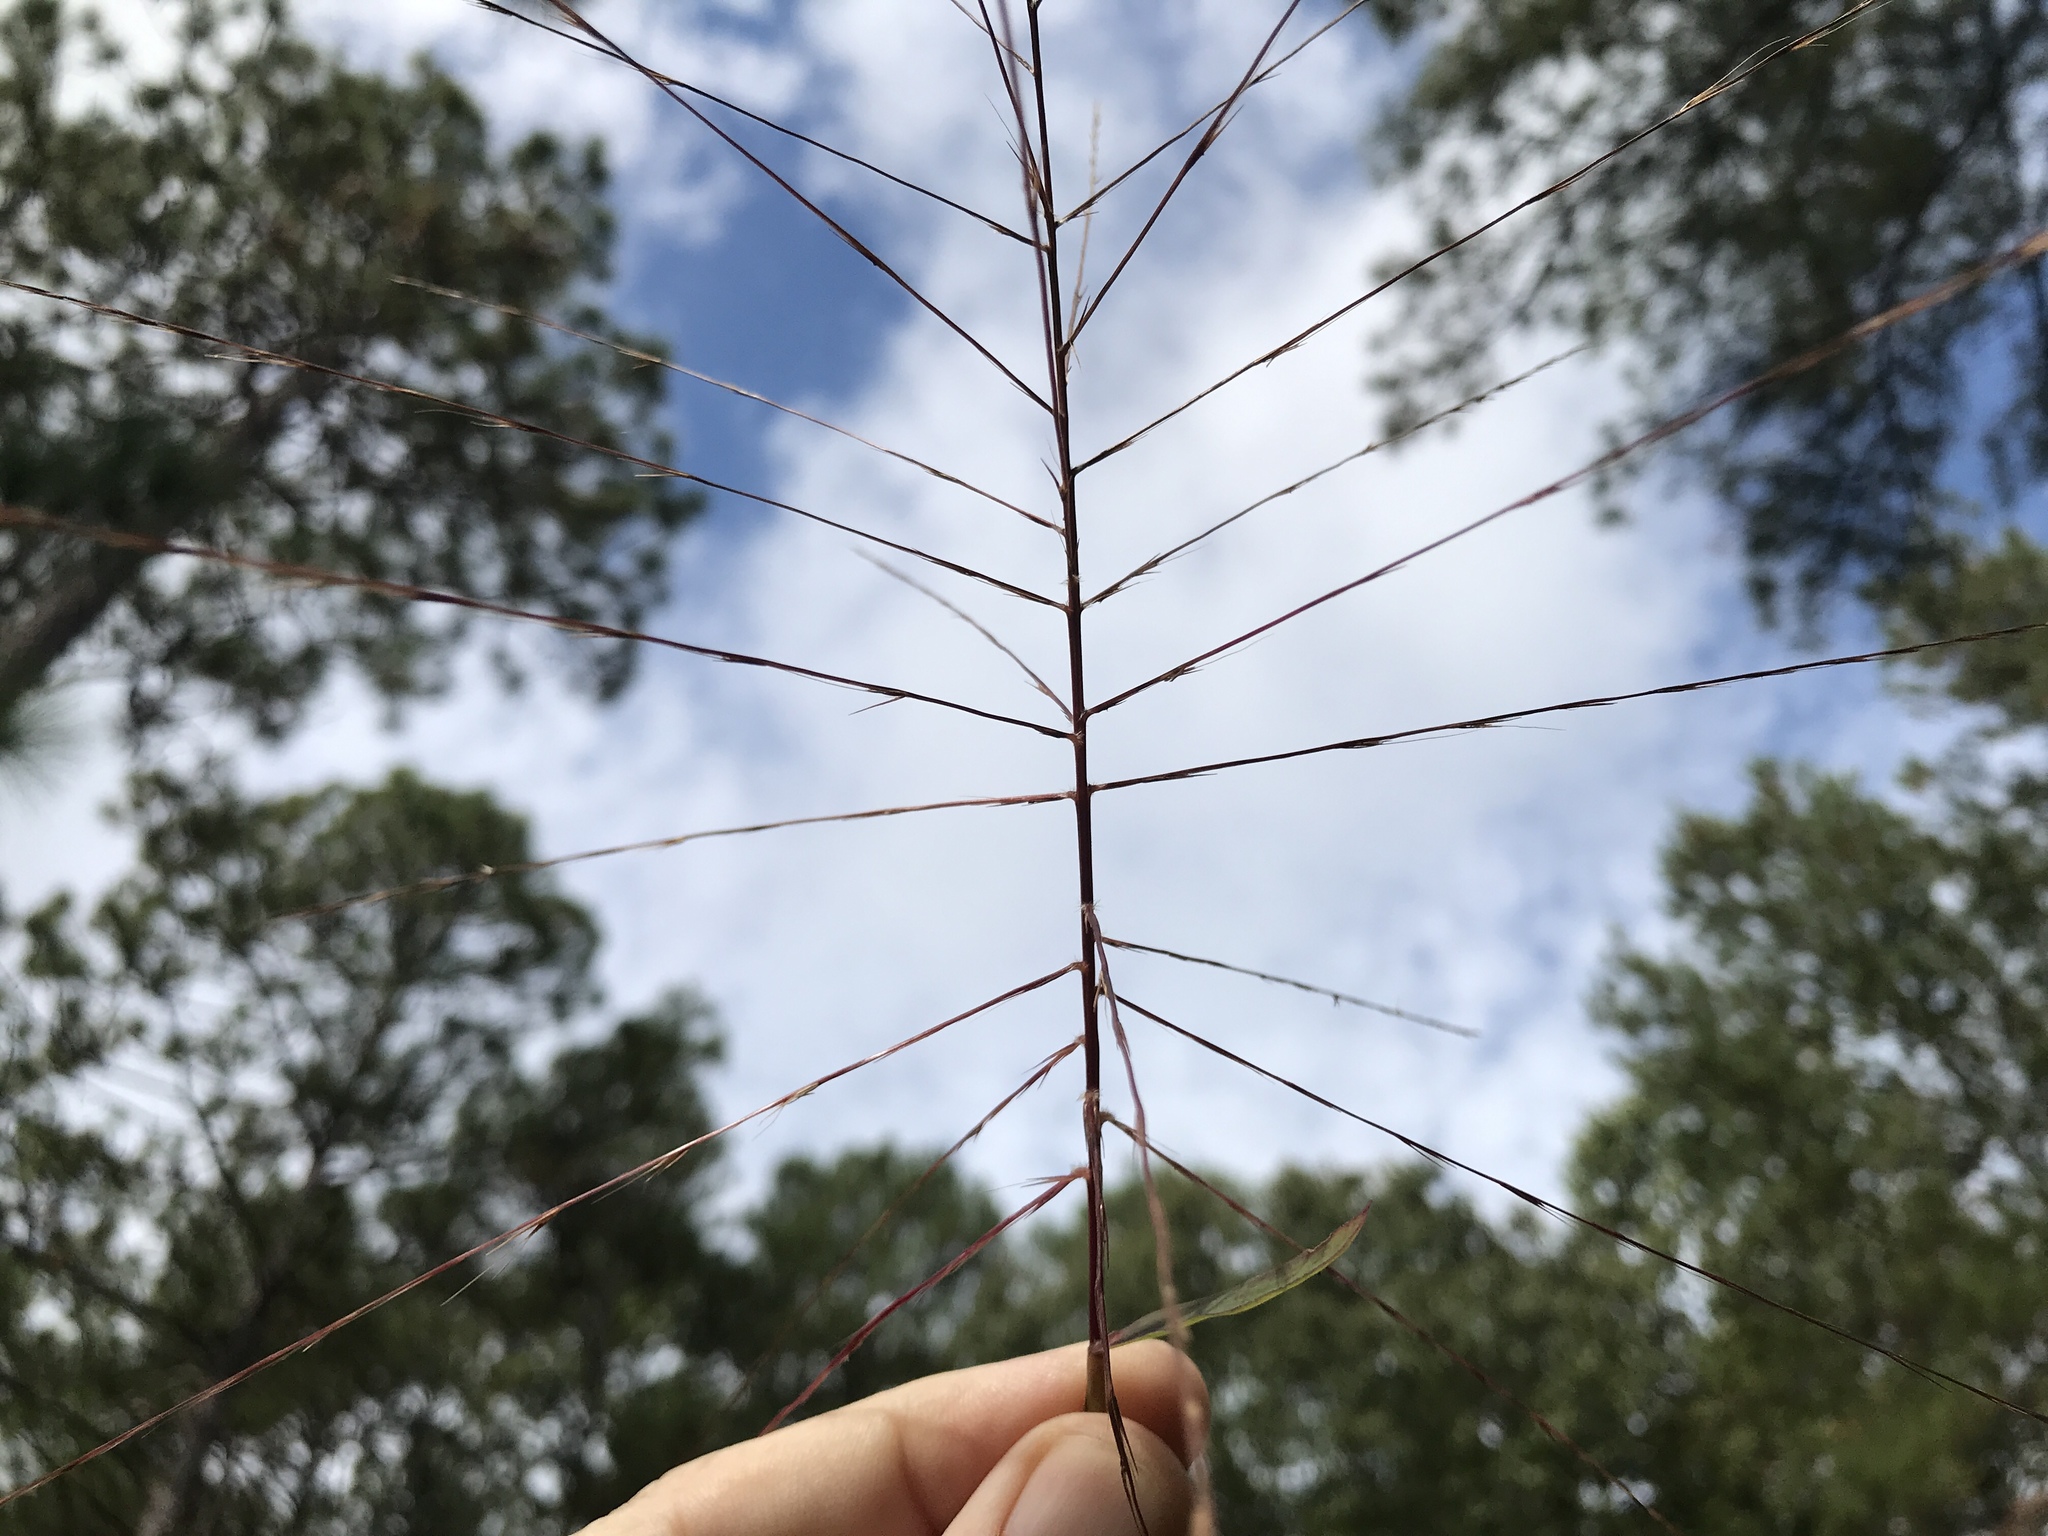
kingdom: Plantae
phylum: Tracheophyta
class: Liliopsida
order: Poales
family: Poaceae
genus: Gymnopogon
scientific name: Gymnopogon ambiguus
